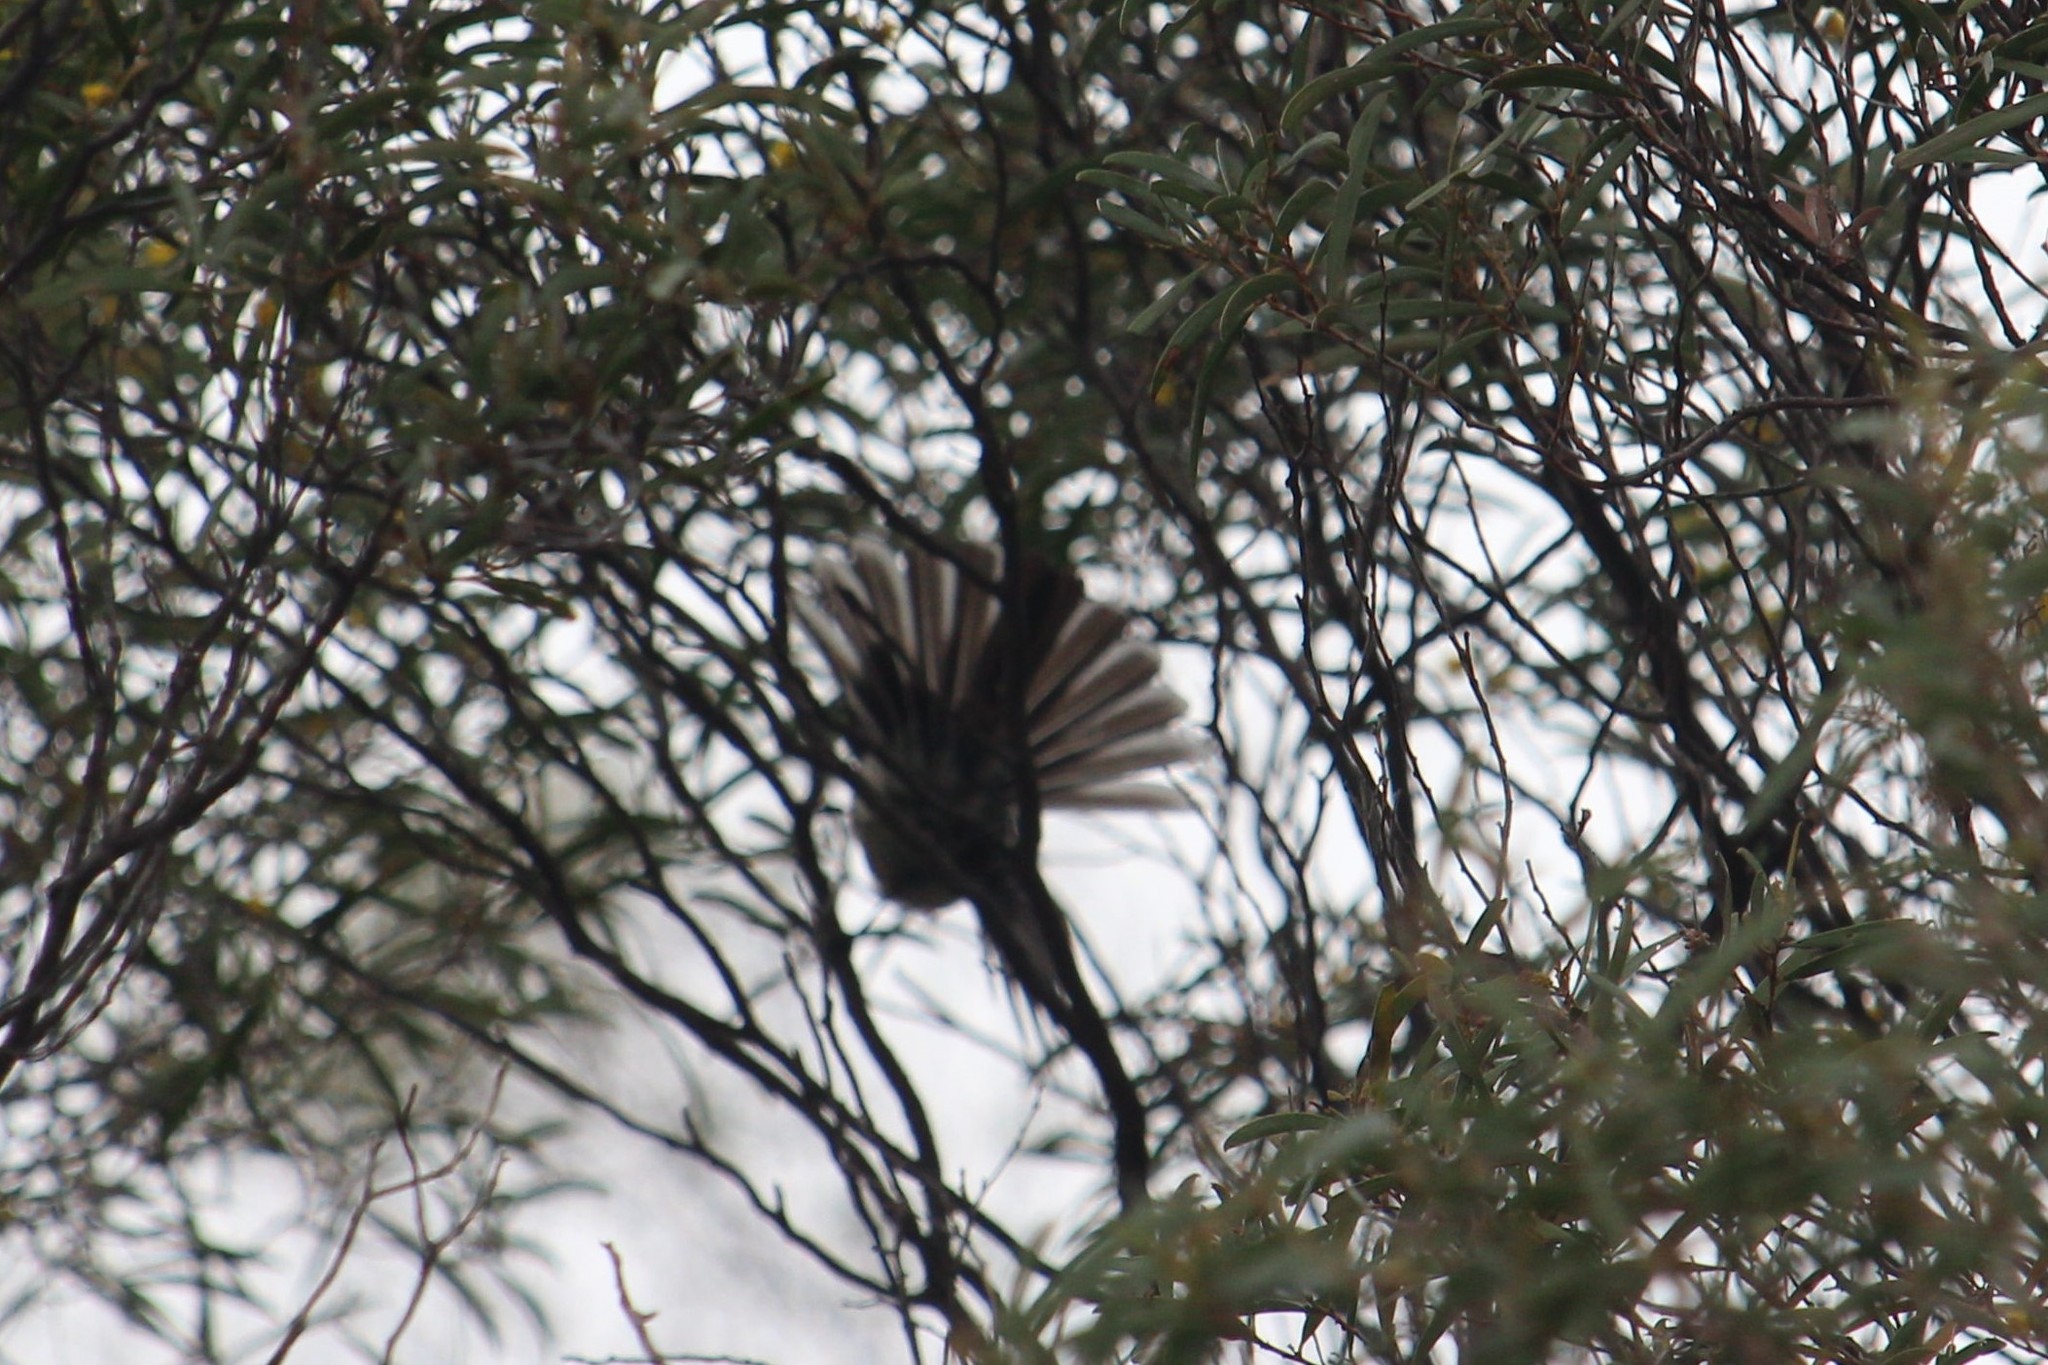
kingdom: Animalia
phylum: Chordata
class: Aves
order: Passeriformes
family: Rhipiduridae
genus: Rhipidura
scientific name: Rhipidura albiscapa
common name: Grey fantail
